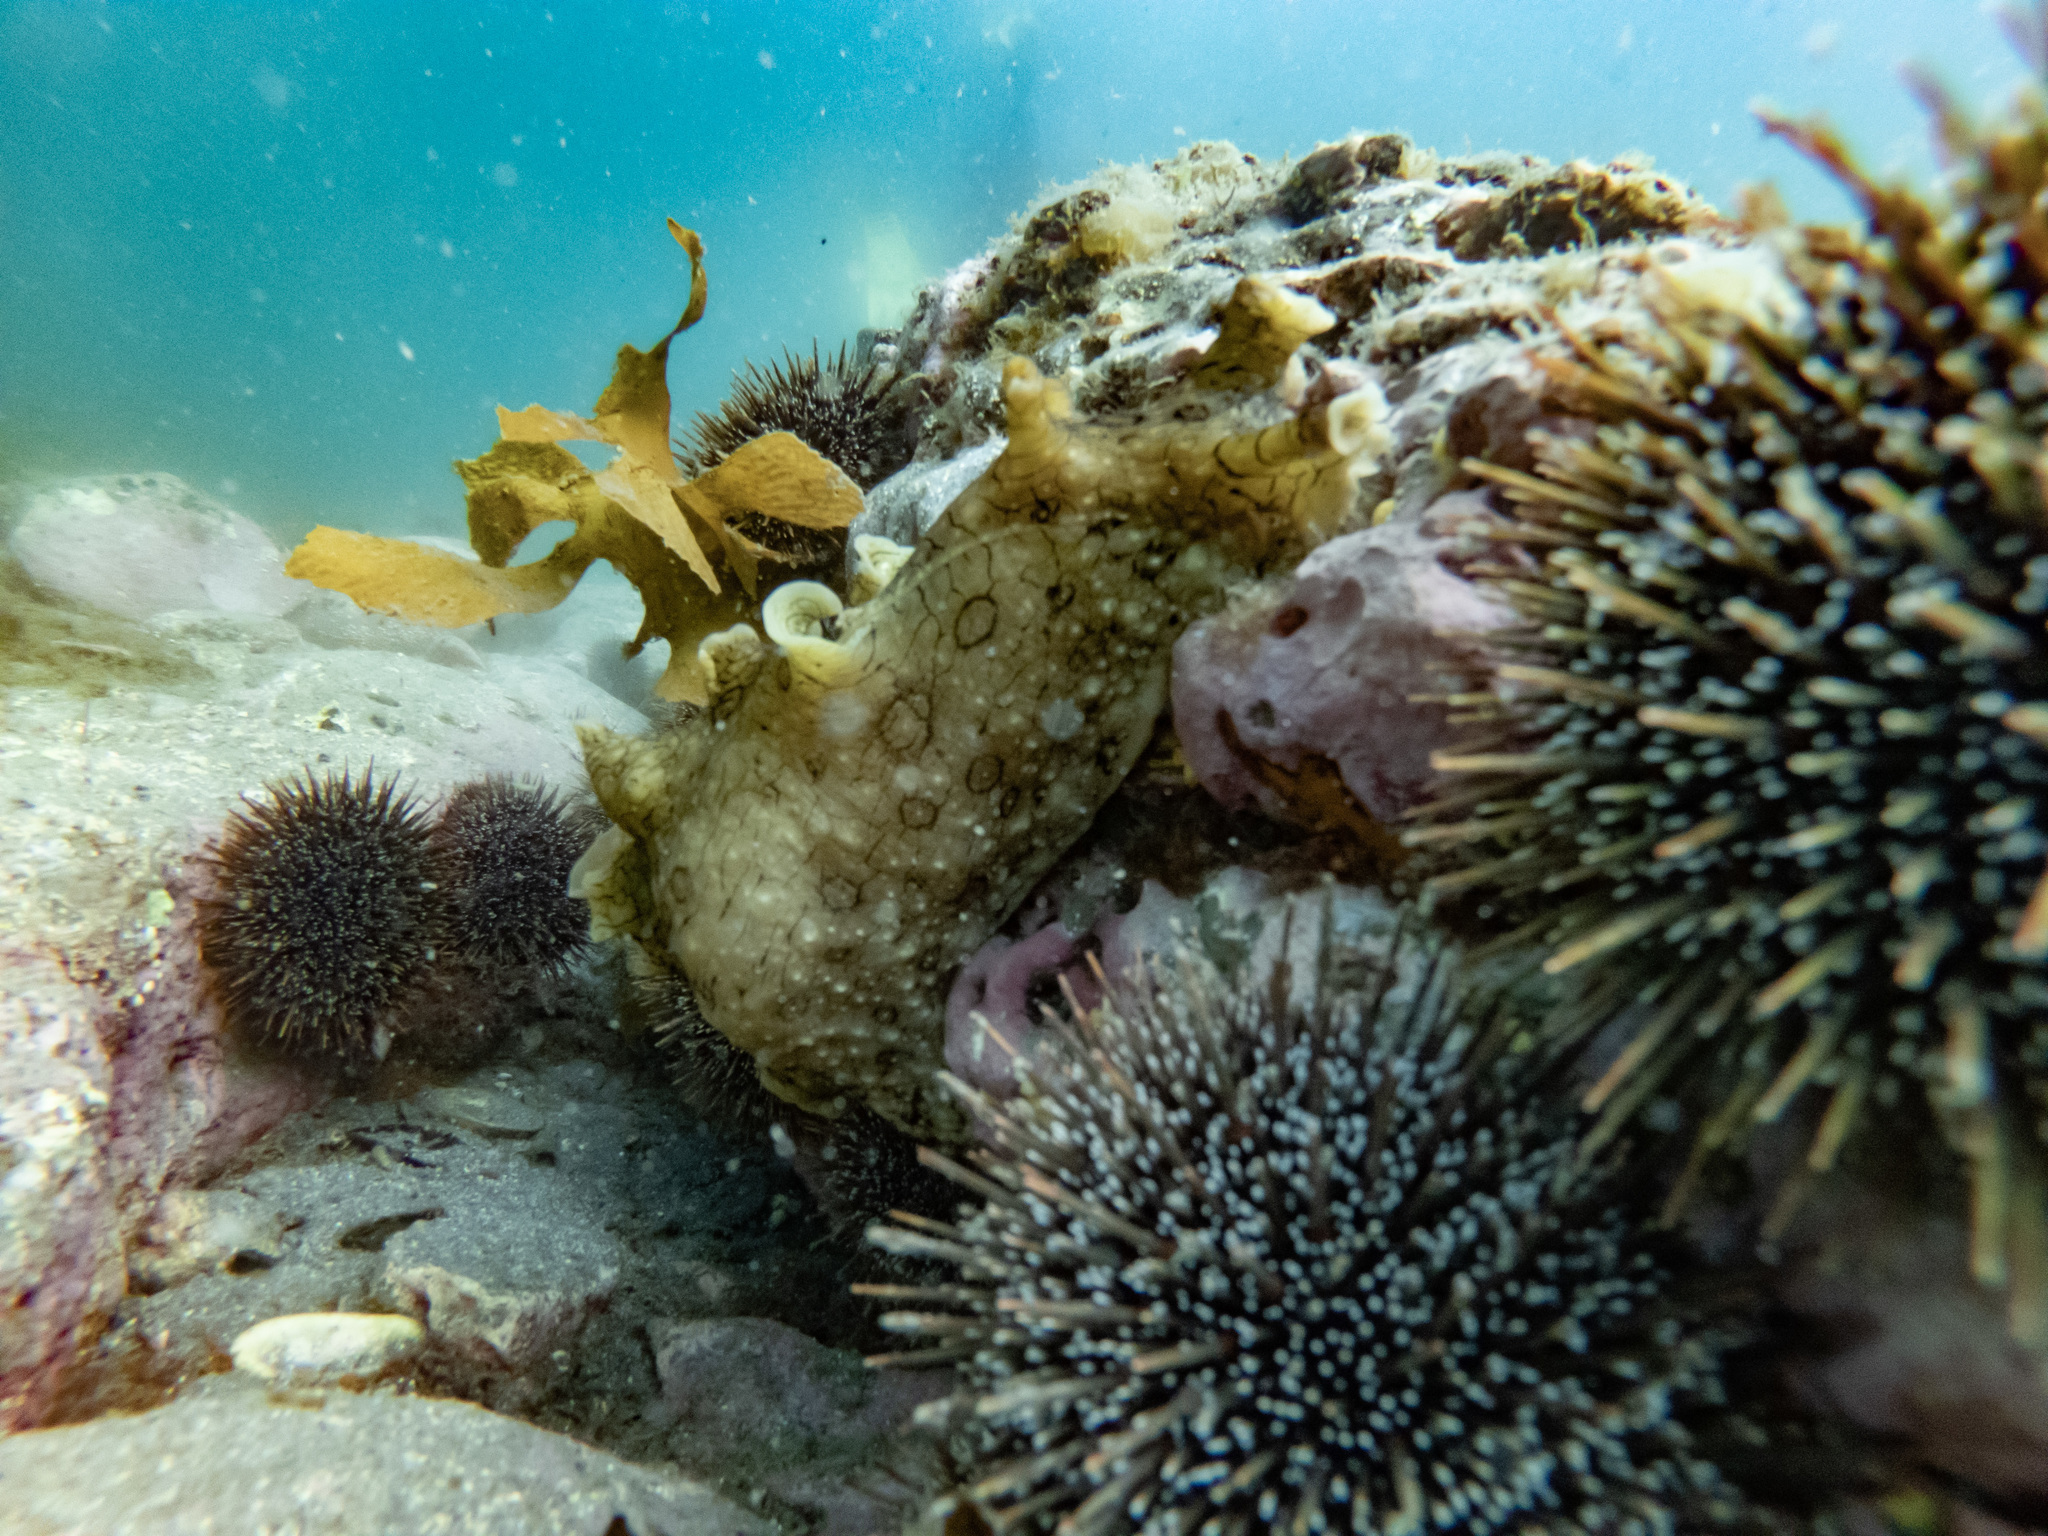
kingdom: Animalia
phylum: Mollusca
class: Gastropoda
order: Aplysiida
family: Aplysiidae
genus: Aplysia
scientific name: Aplysia argus
